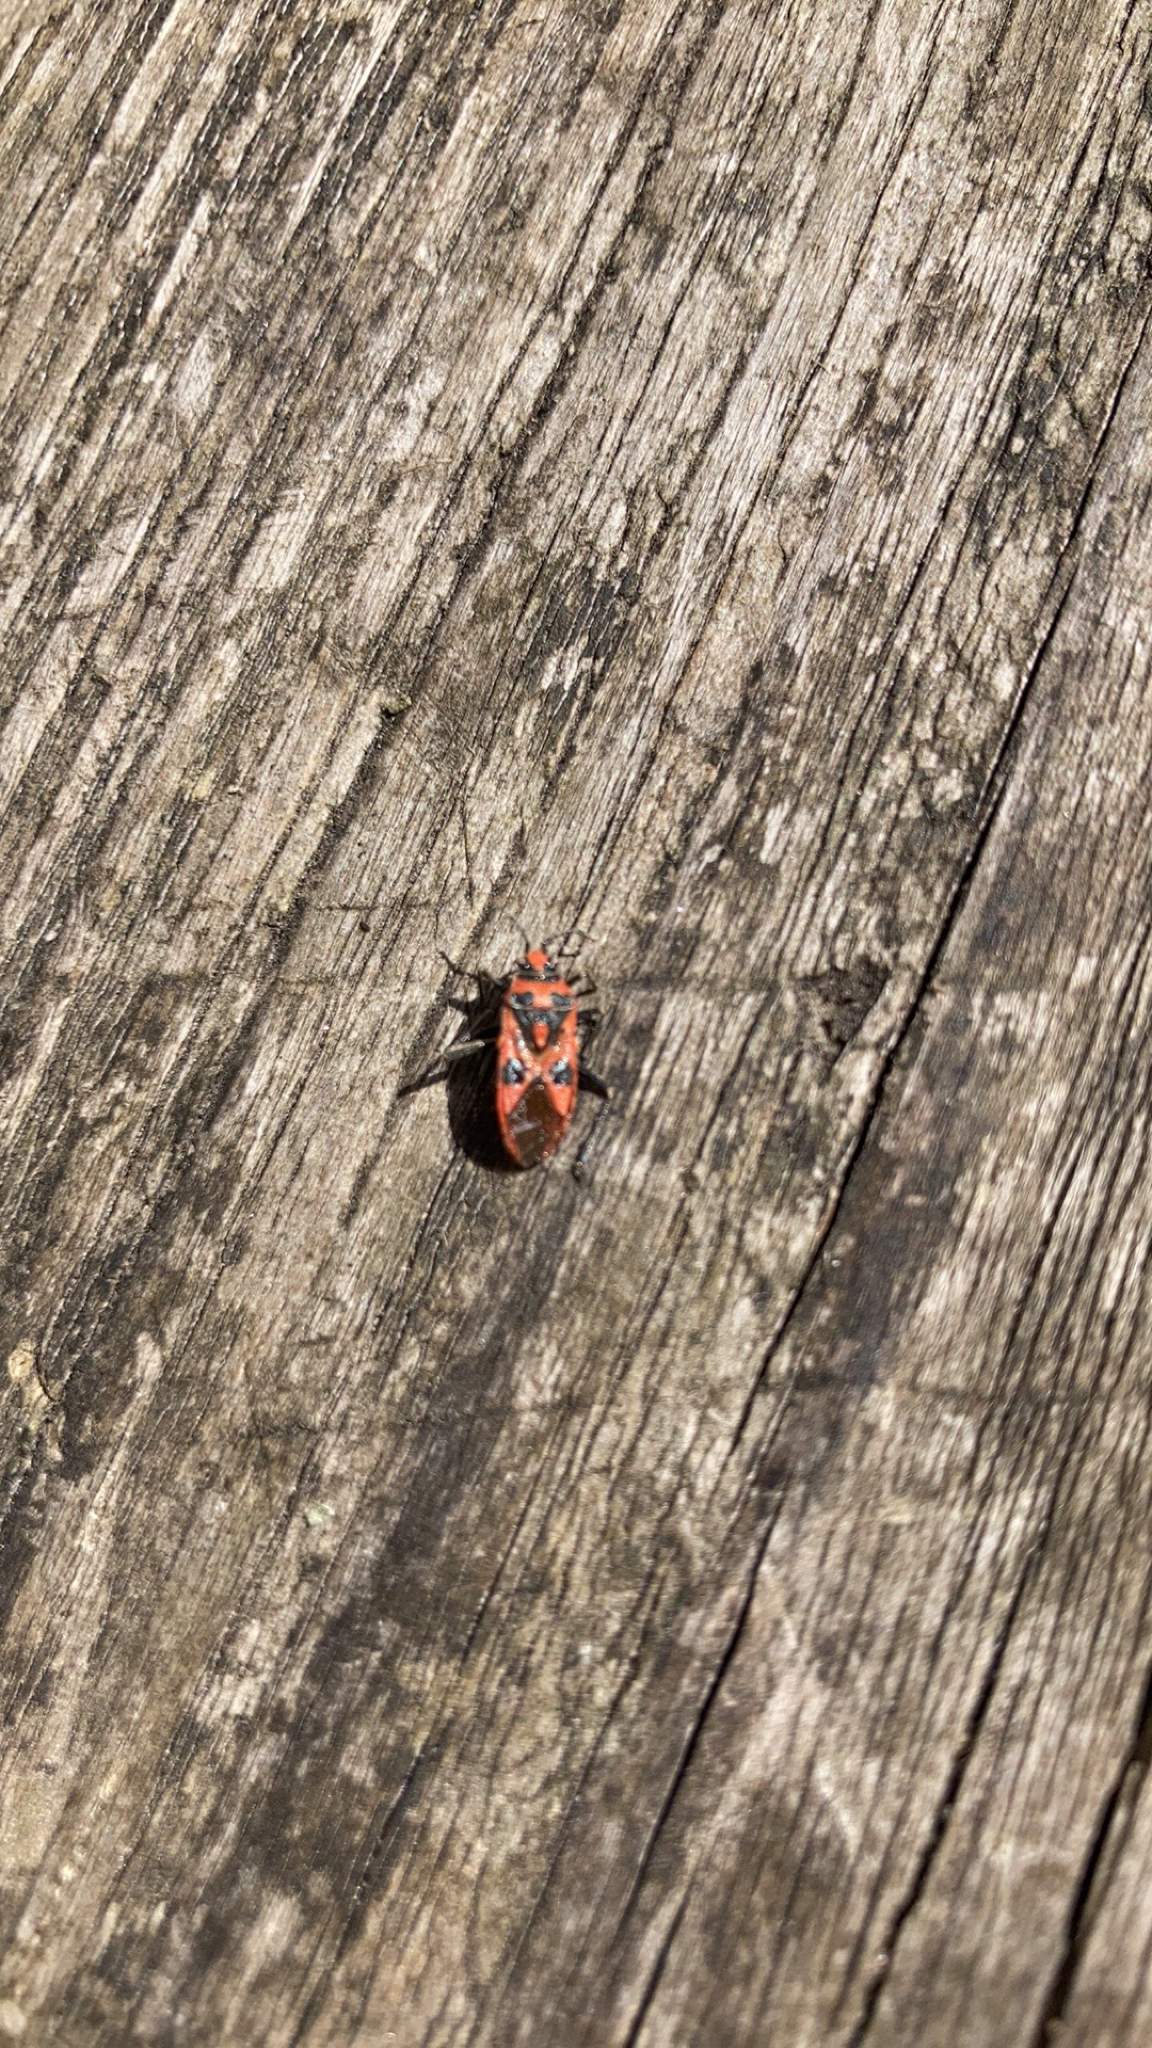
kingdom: Animalia
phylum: Arthropoda
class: Insecta
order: Hemiptera
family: Rhopalidae
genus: Corizus
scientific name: Corizus hyoscyami
